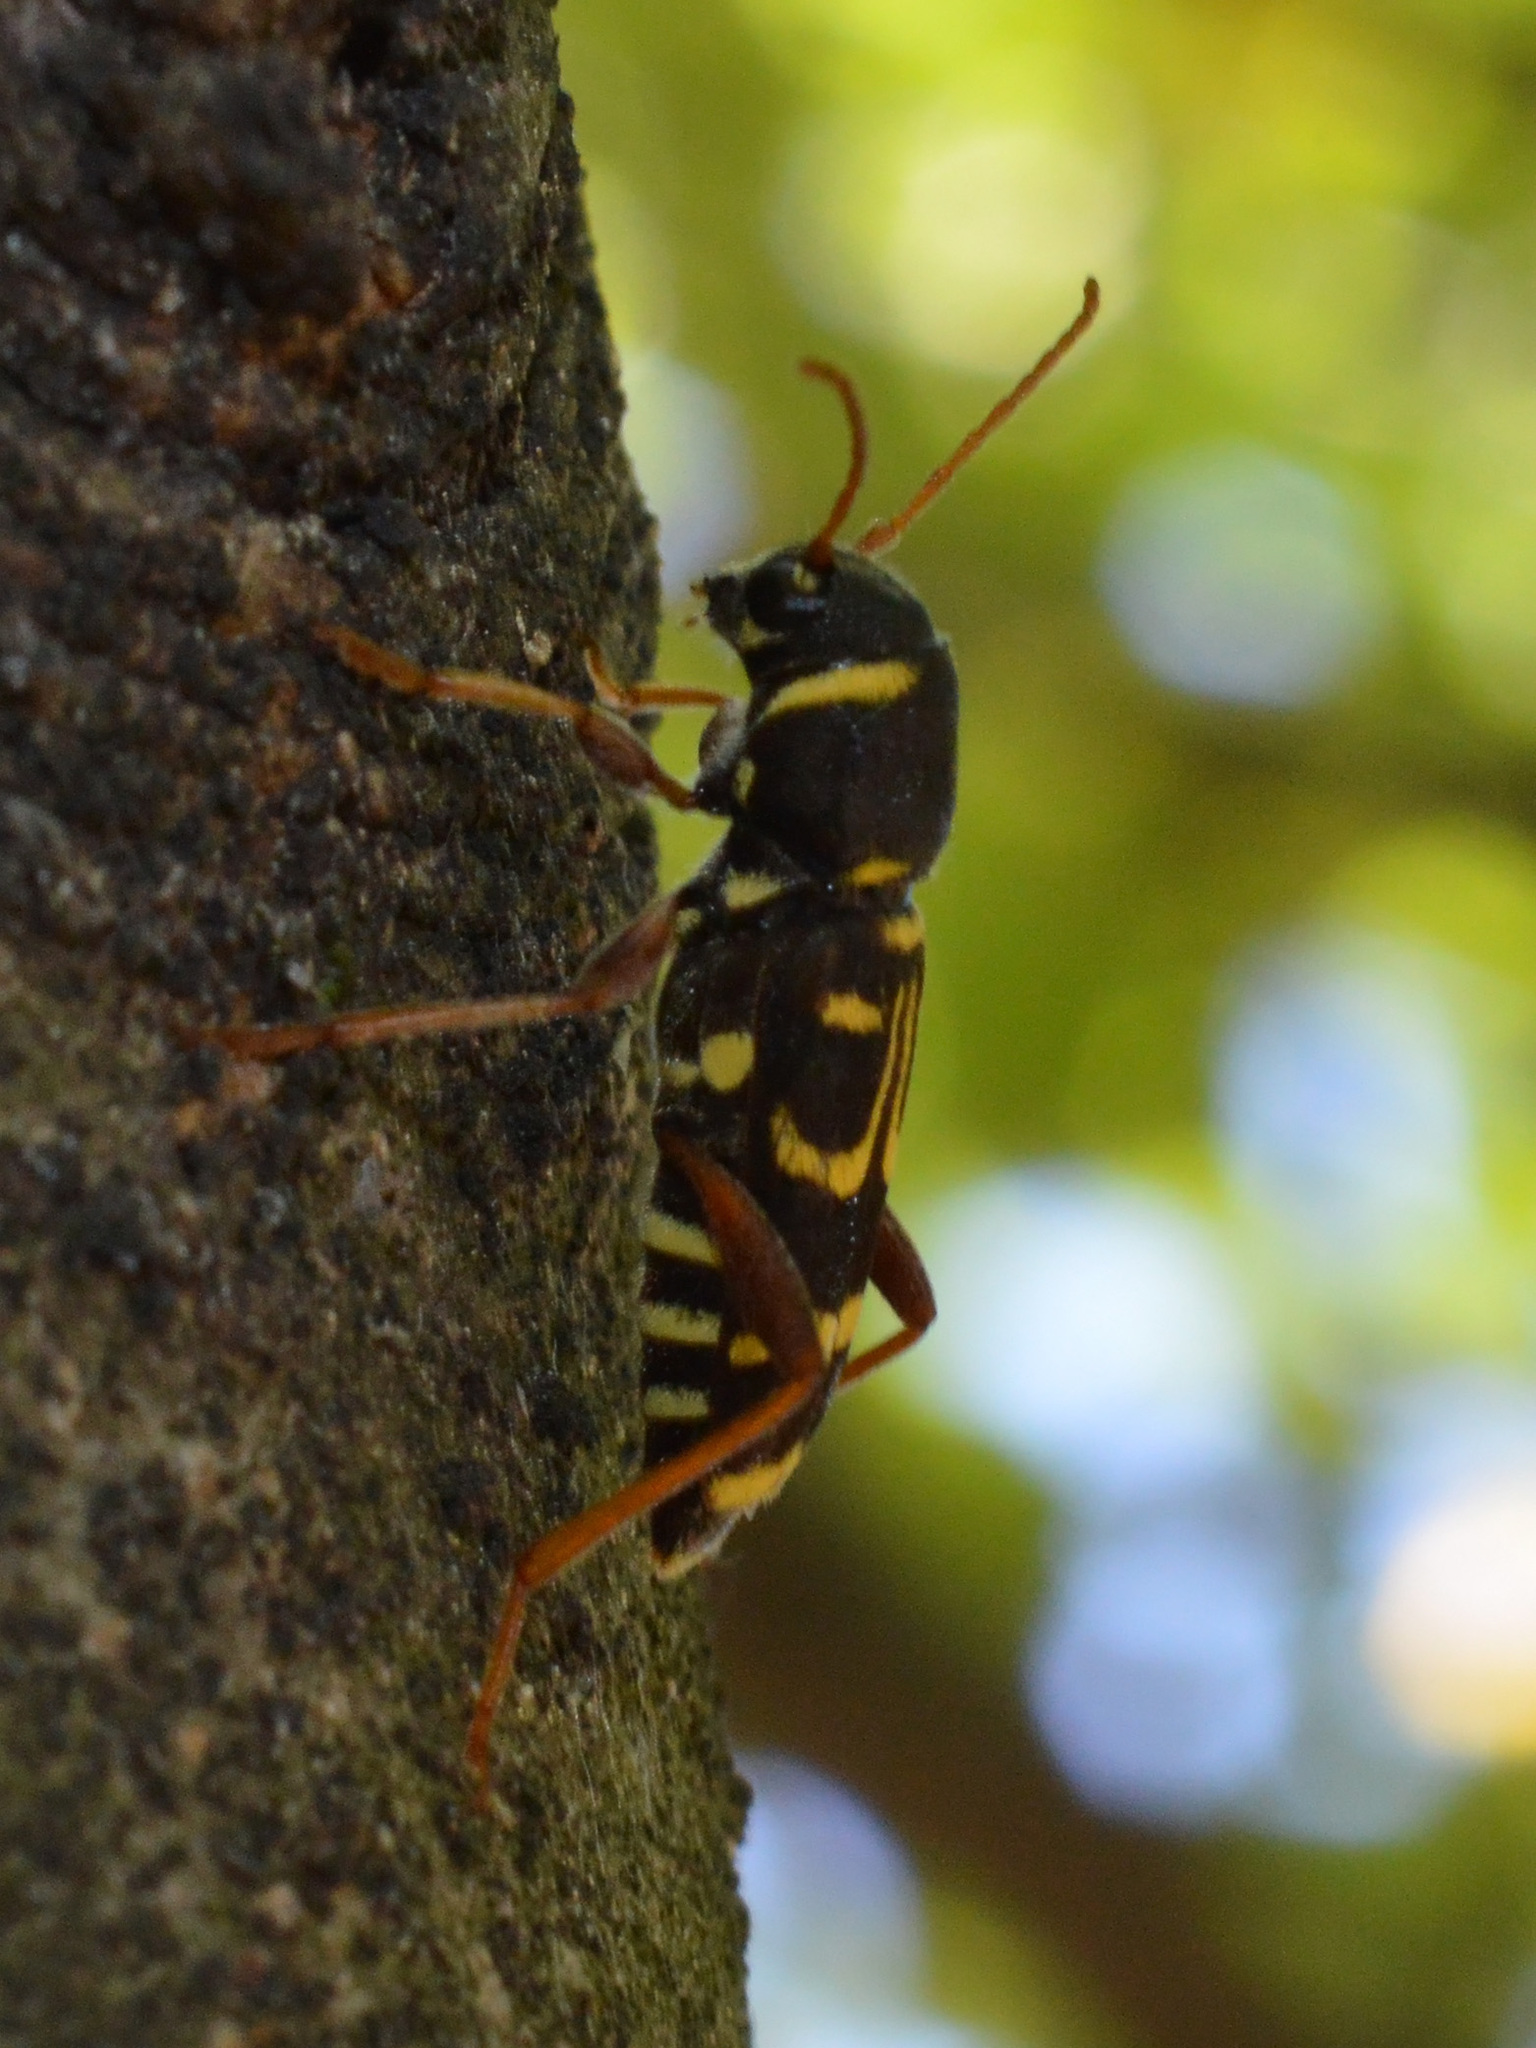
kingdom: Animalia
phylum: Arthropoda
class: Insecta
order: Coleoptera
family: Cerambycidae
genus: Xylotrechus
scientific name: Xylotrechus arvicola
